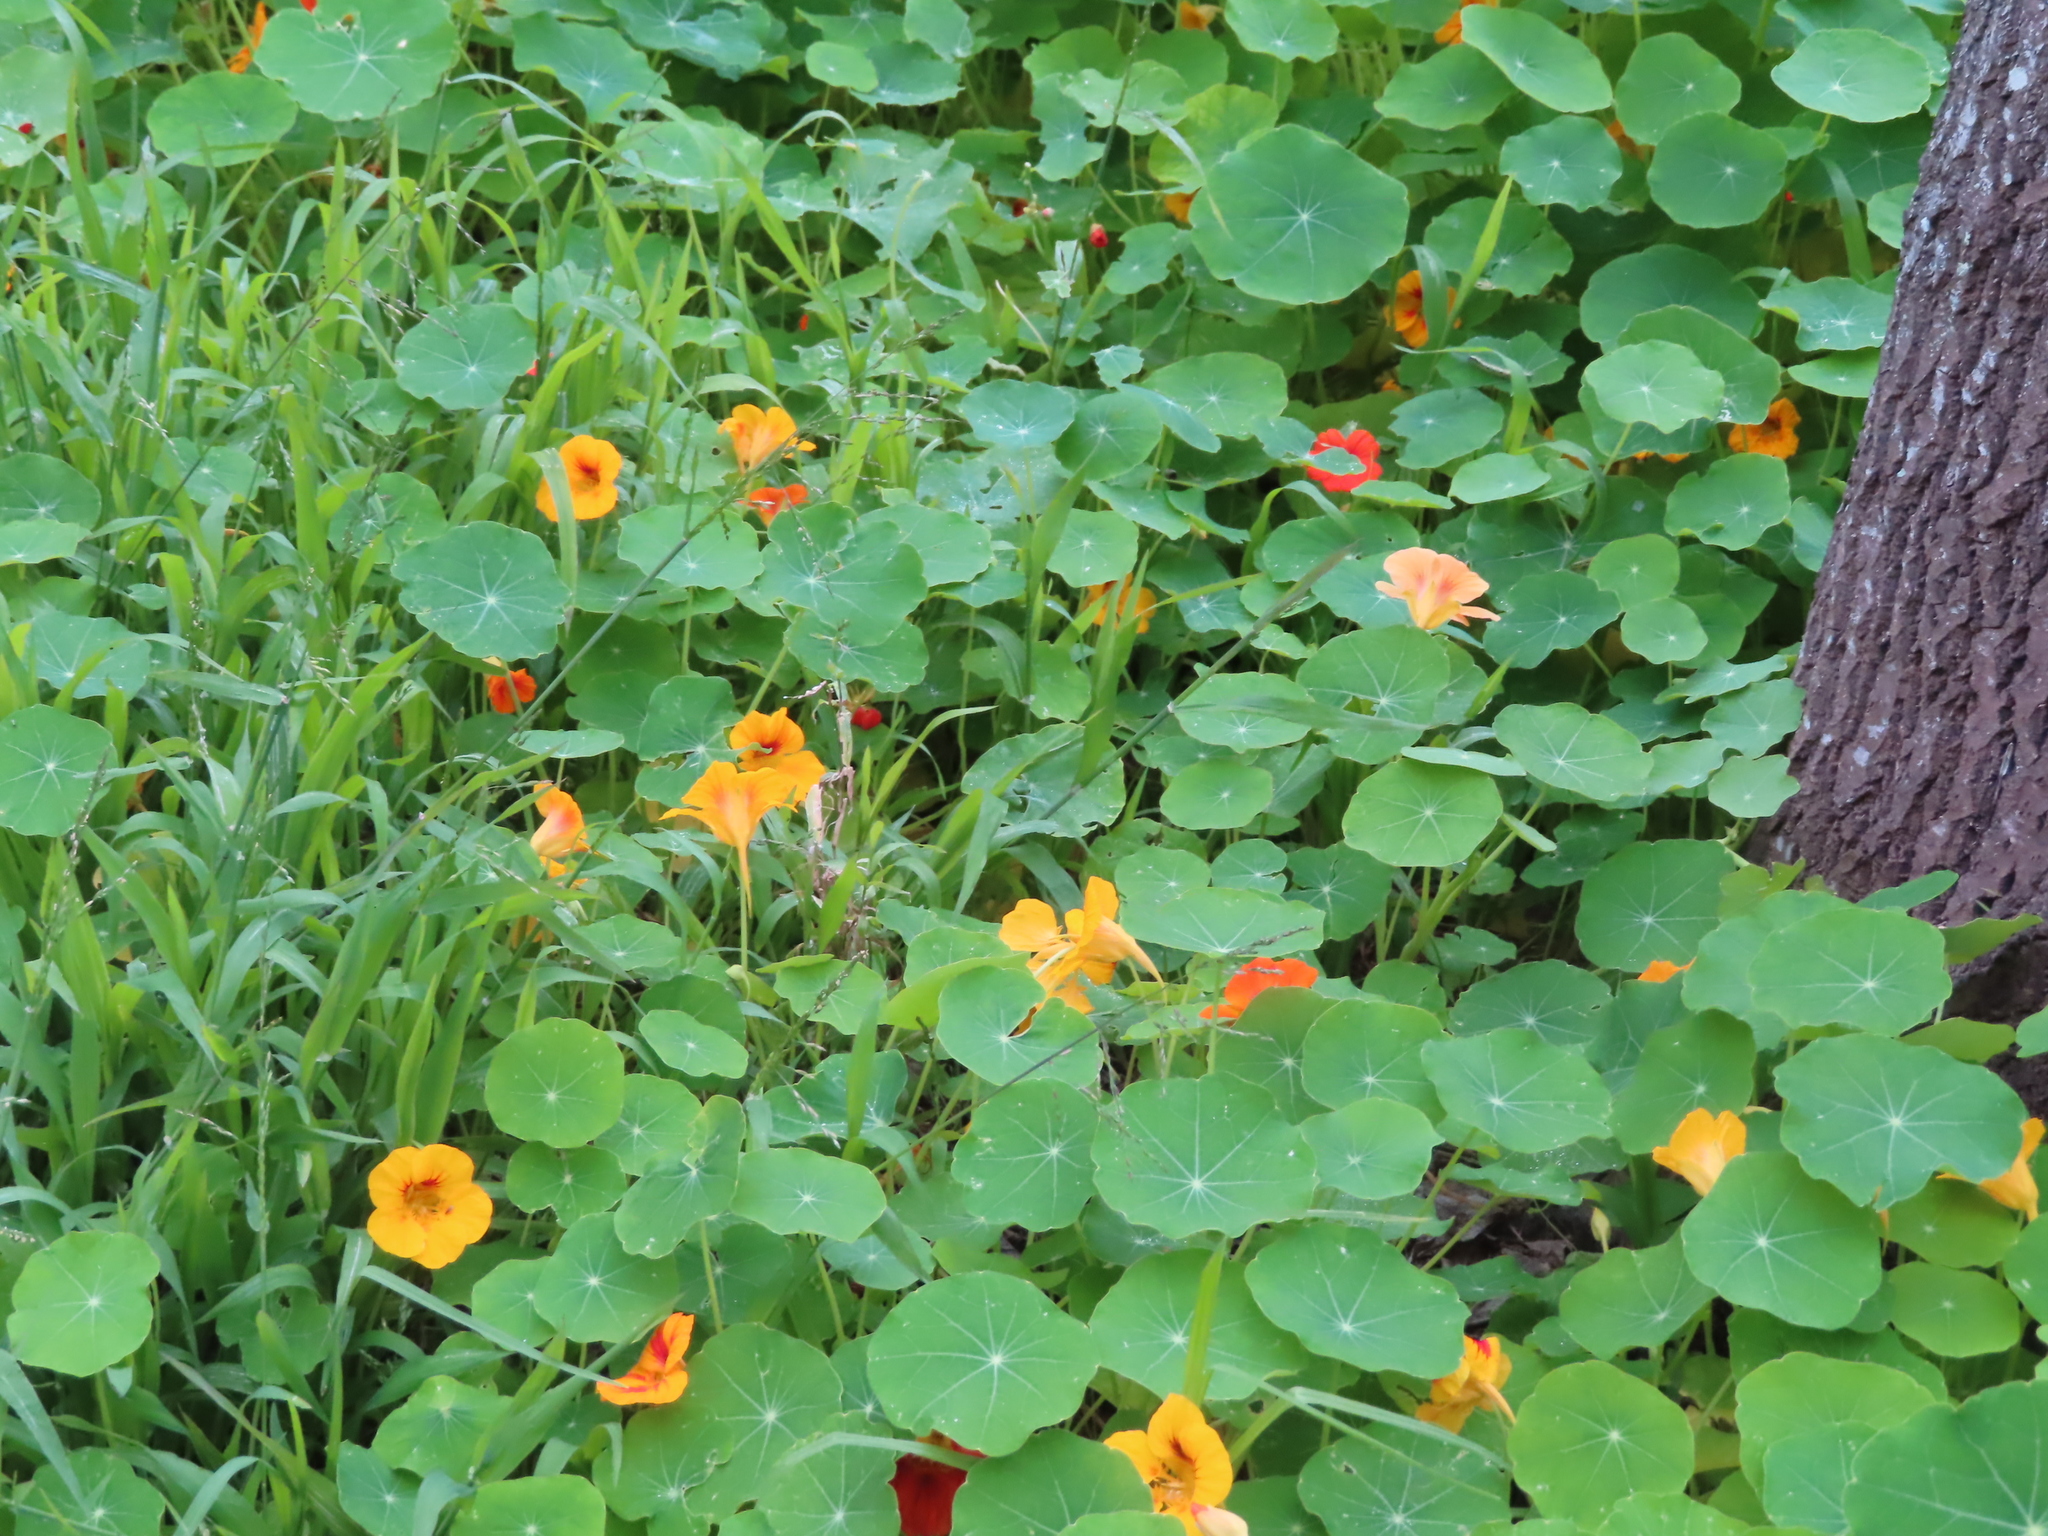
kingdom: Plantae
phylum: Tracheophyta
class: Magnoliopsida
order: Brassicales
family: Tropaeolaceae
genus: Tropaeolum
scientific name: Tropaeolum majus
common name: Nasturtium
